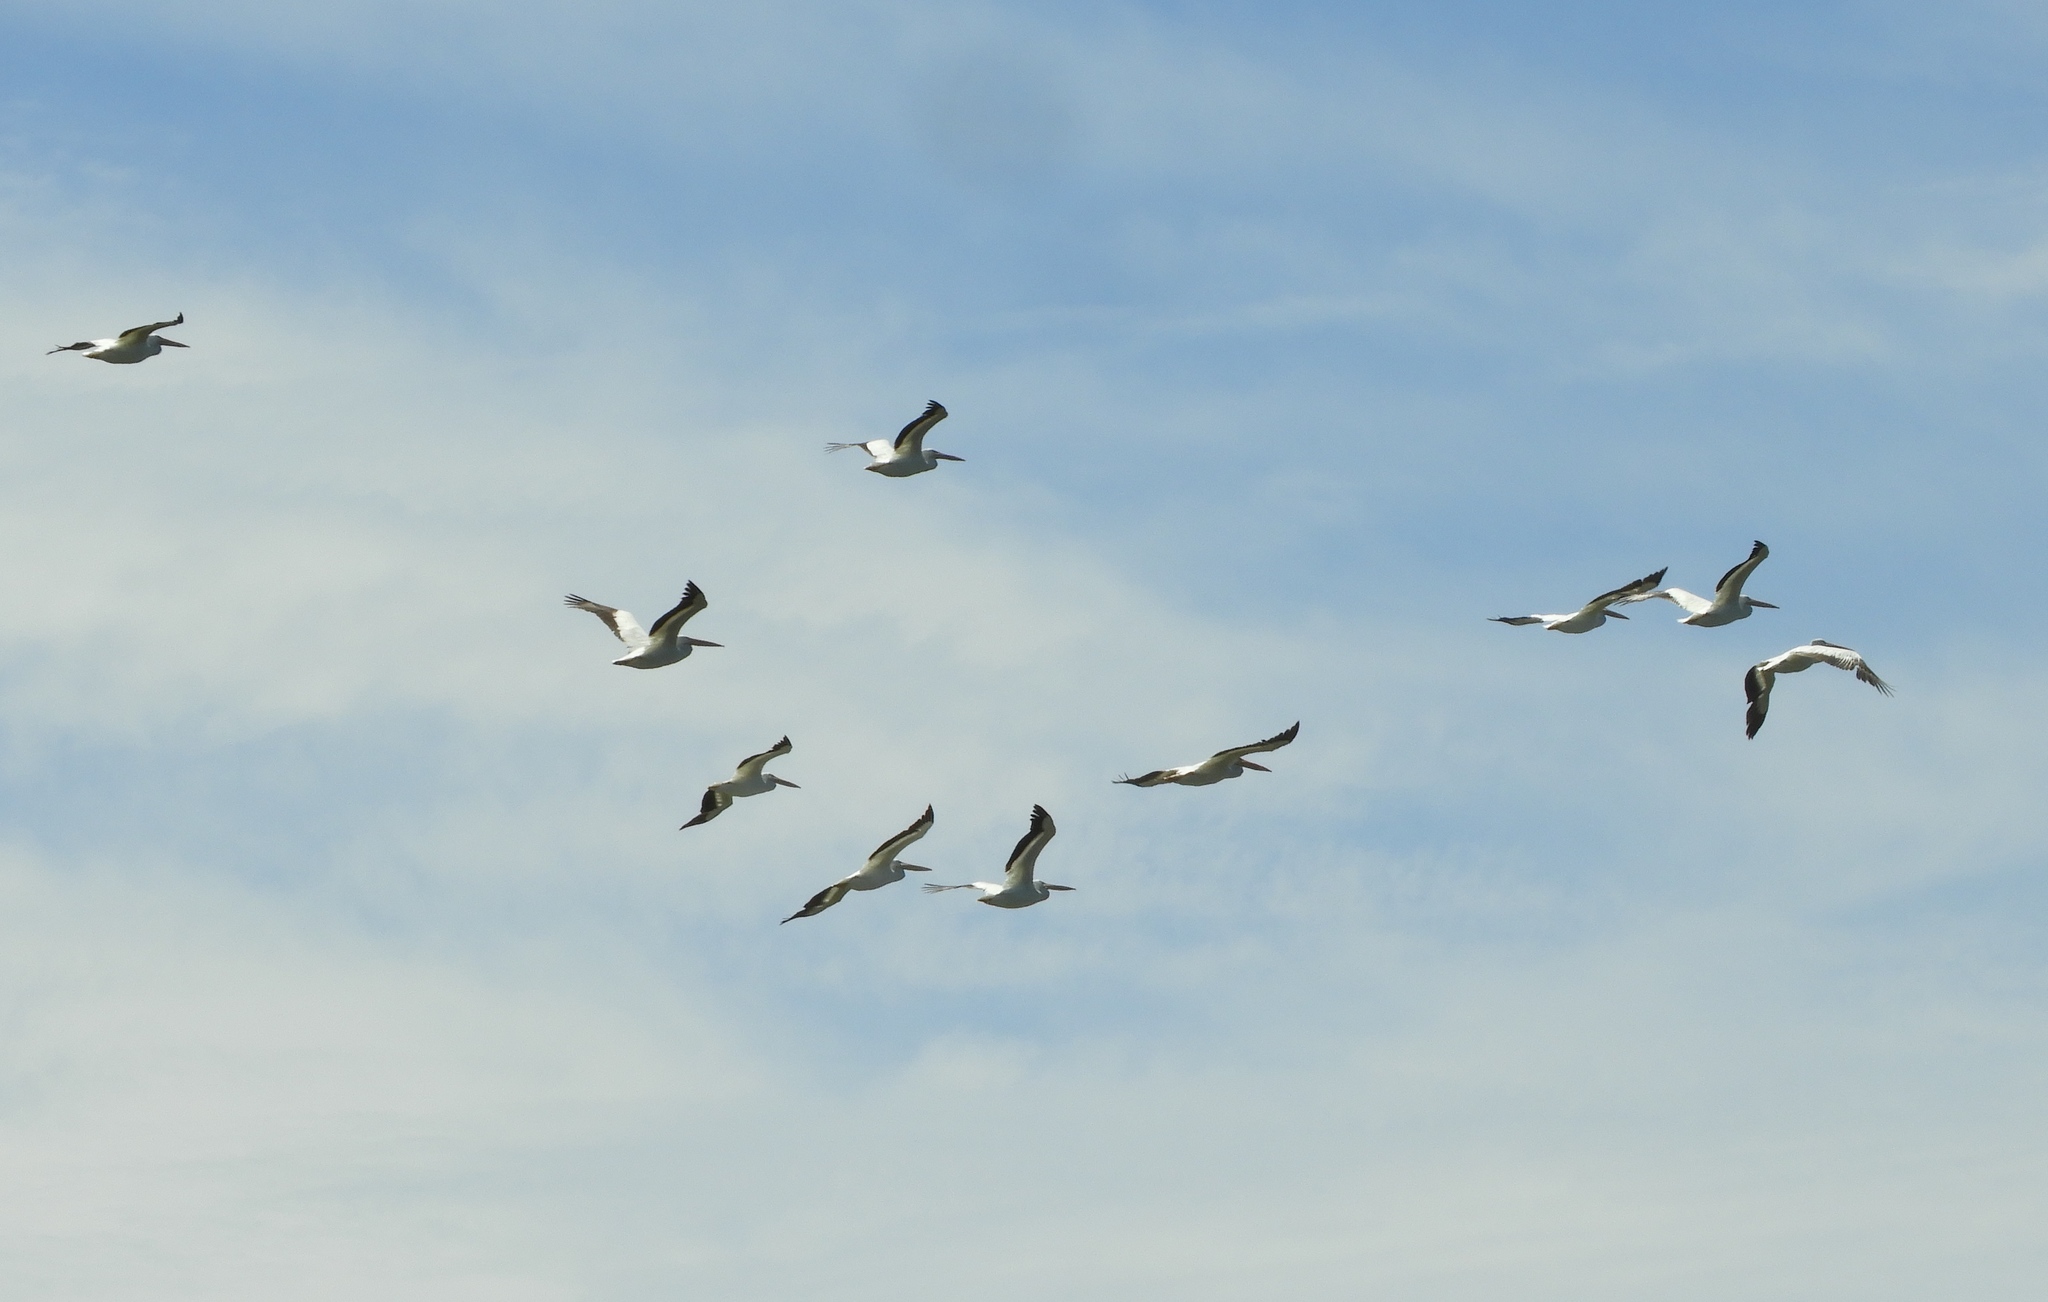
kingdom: Animalia
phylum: Chordata
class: Aves
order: Pelecaniformes
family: Pelecanidae
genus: Pelecanus
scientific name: Pelecanus erythrorhynchos
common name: American white pelican
